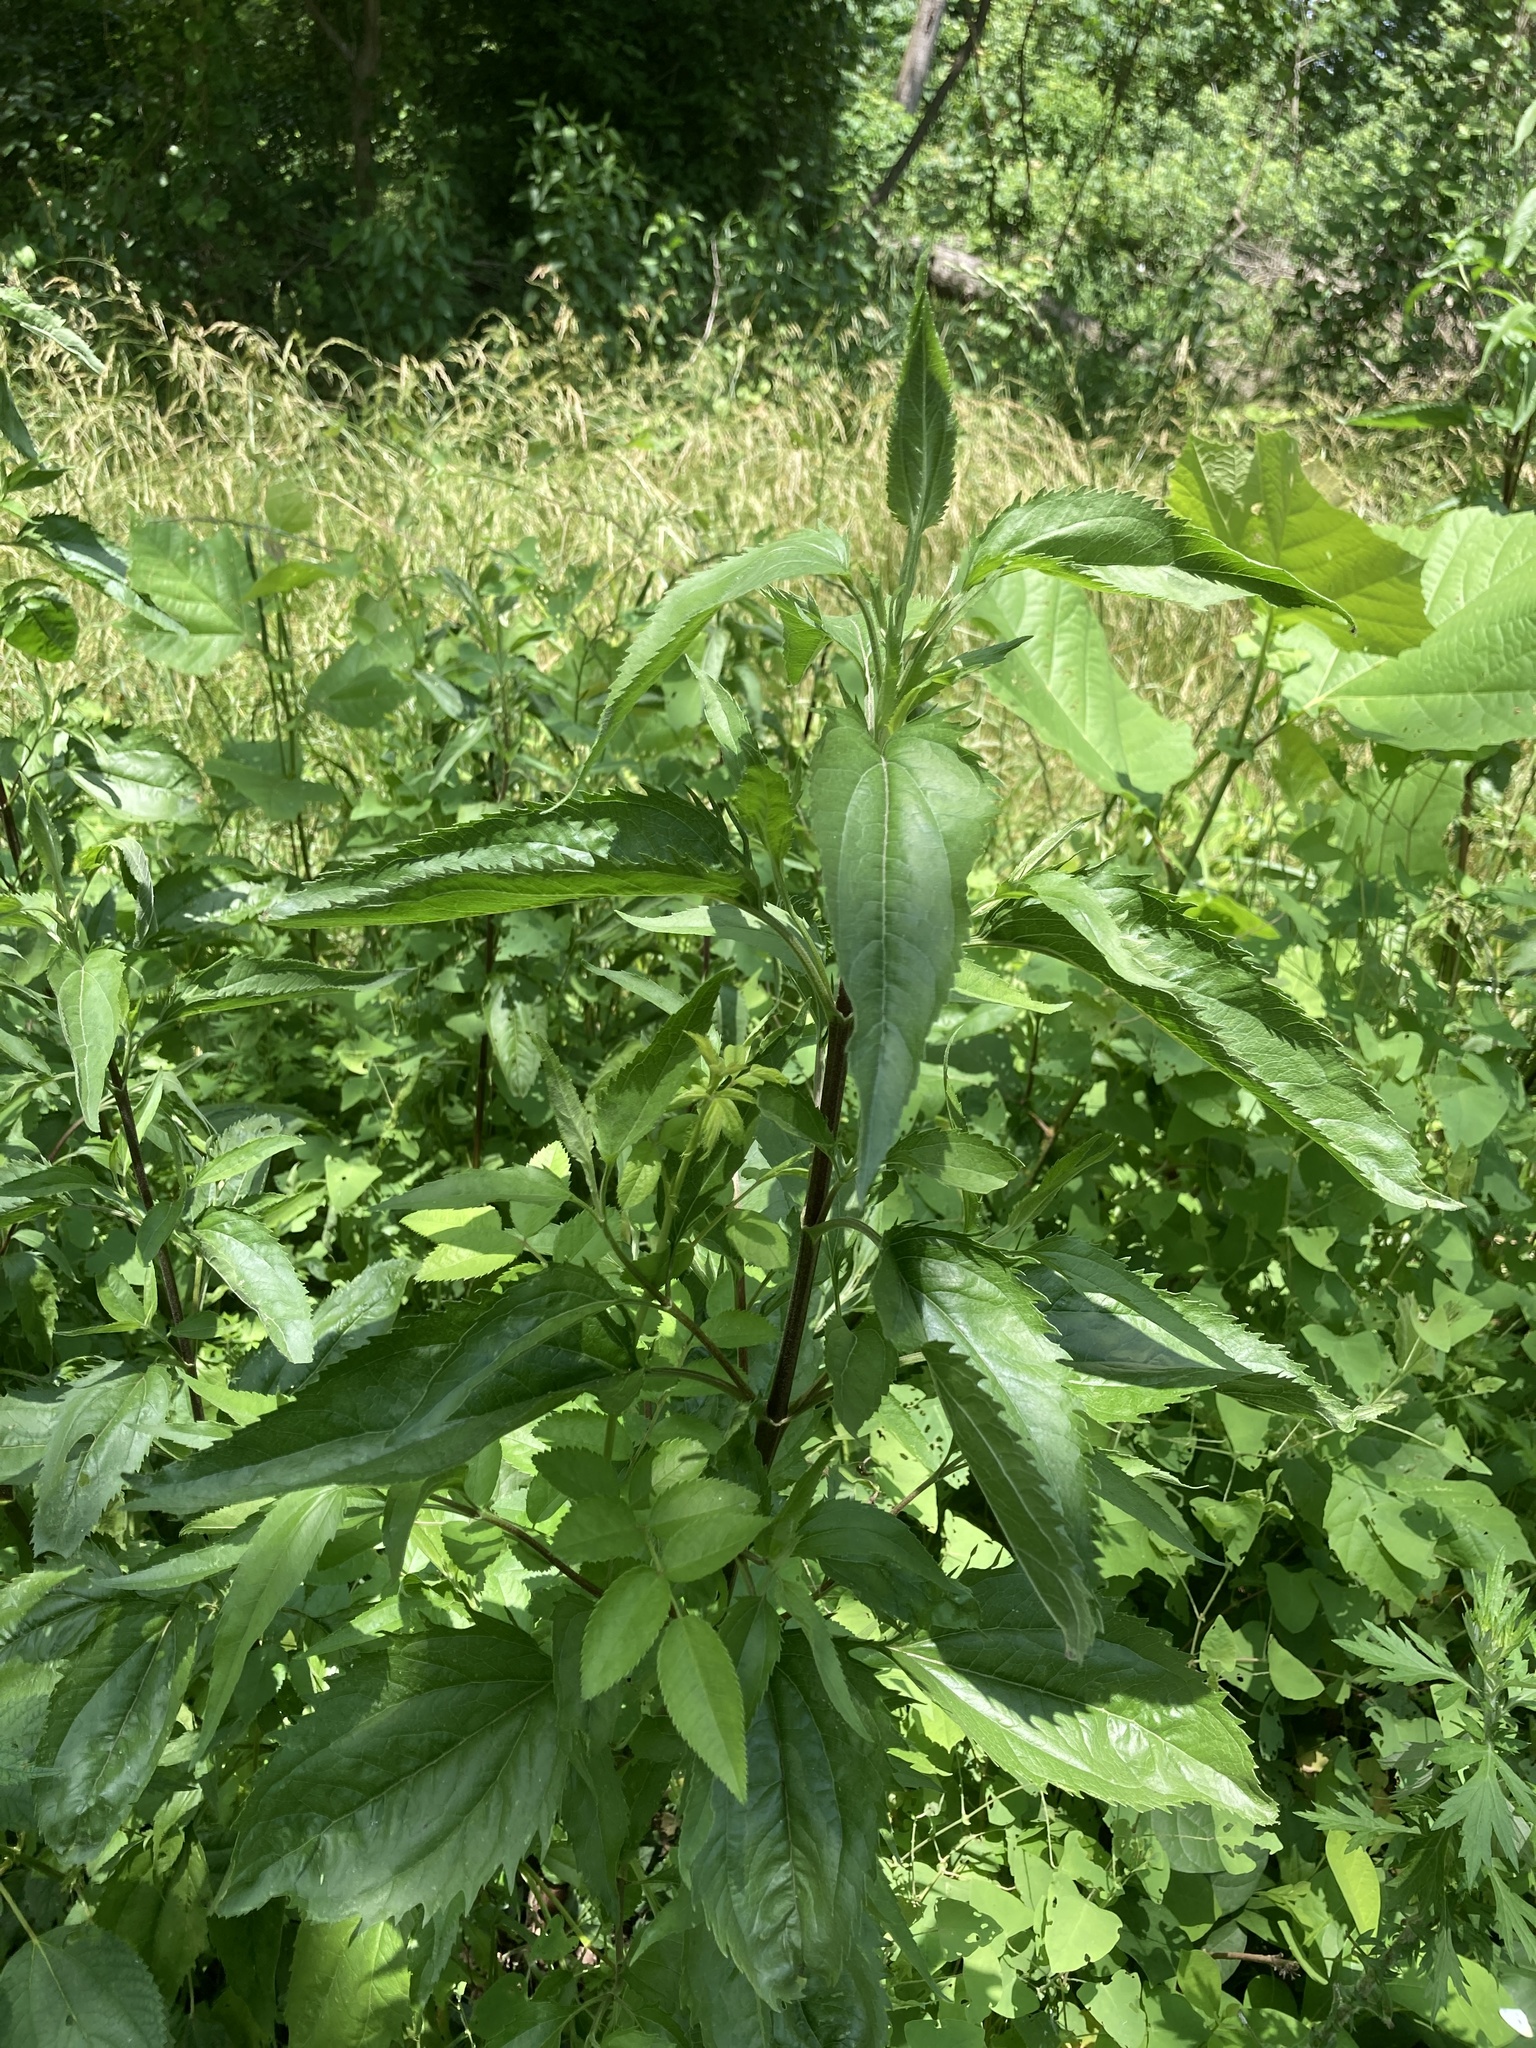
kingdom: Plantae
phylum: Tracheophyta
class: Magnoliopsida
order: Asterales
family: Asteraceae
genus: Eupatorium
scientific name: Eupatorium serotinum
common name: Late boneset
